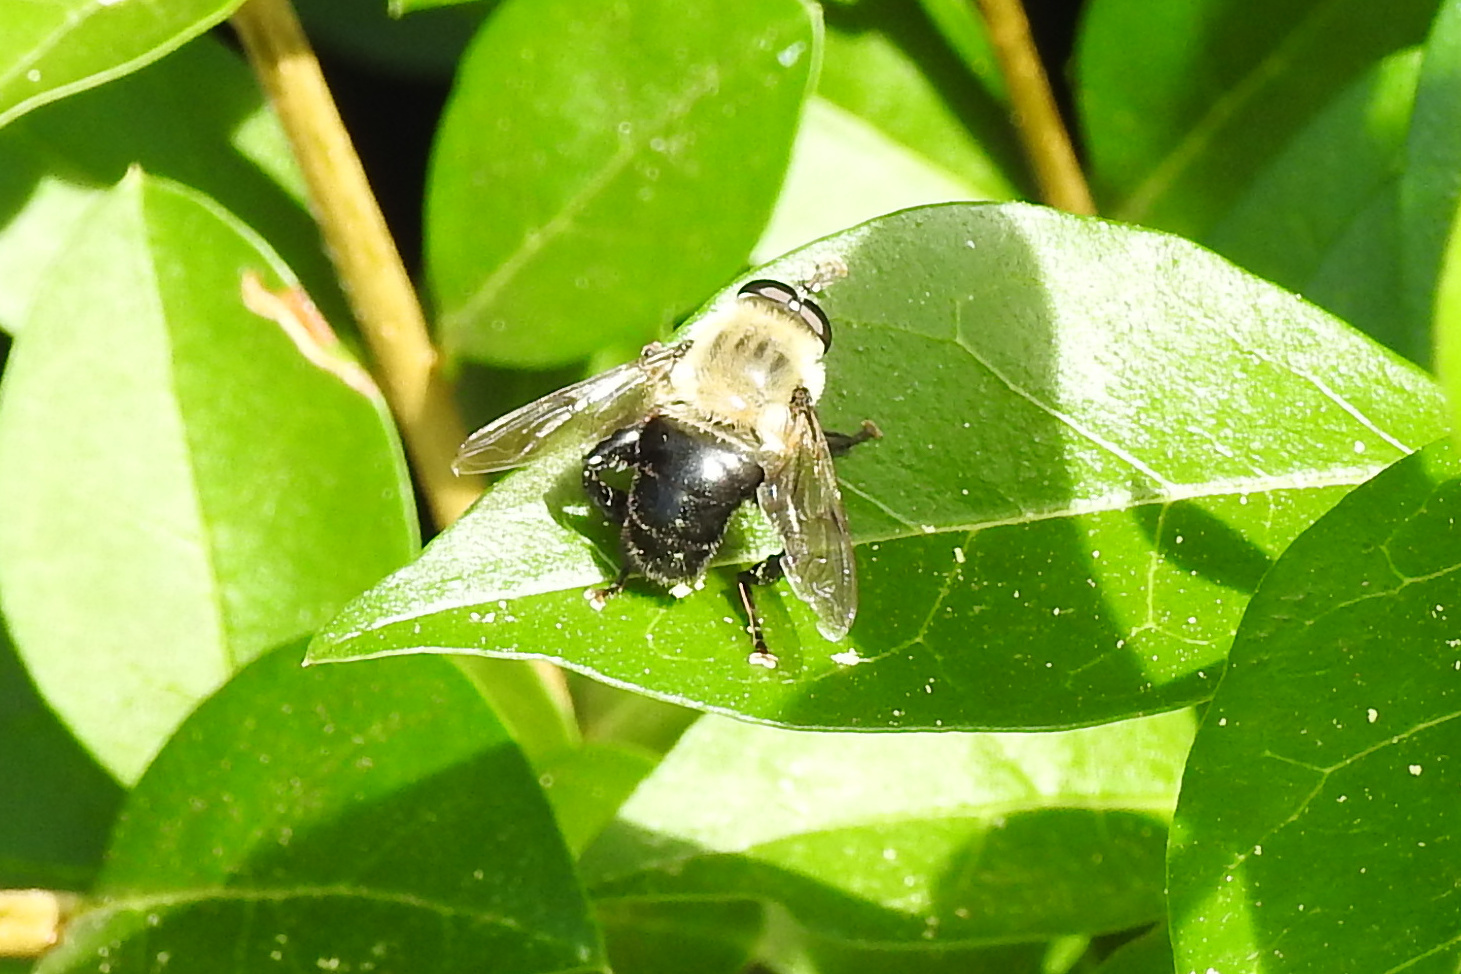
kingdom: Animalia
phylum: Arthropoda
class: Insecta
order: Diptera
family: Syrphidae
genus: Imatisma
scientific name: Imatisma bautias
